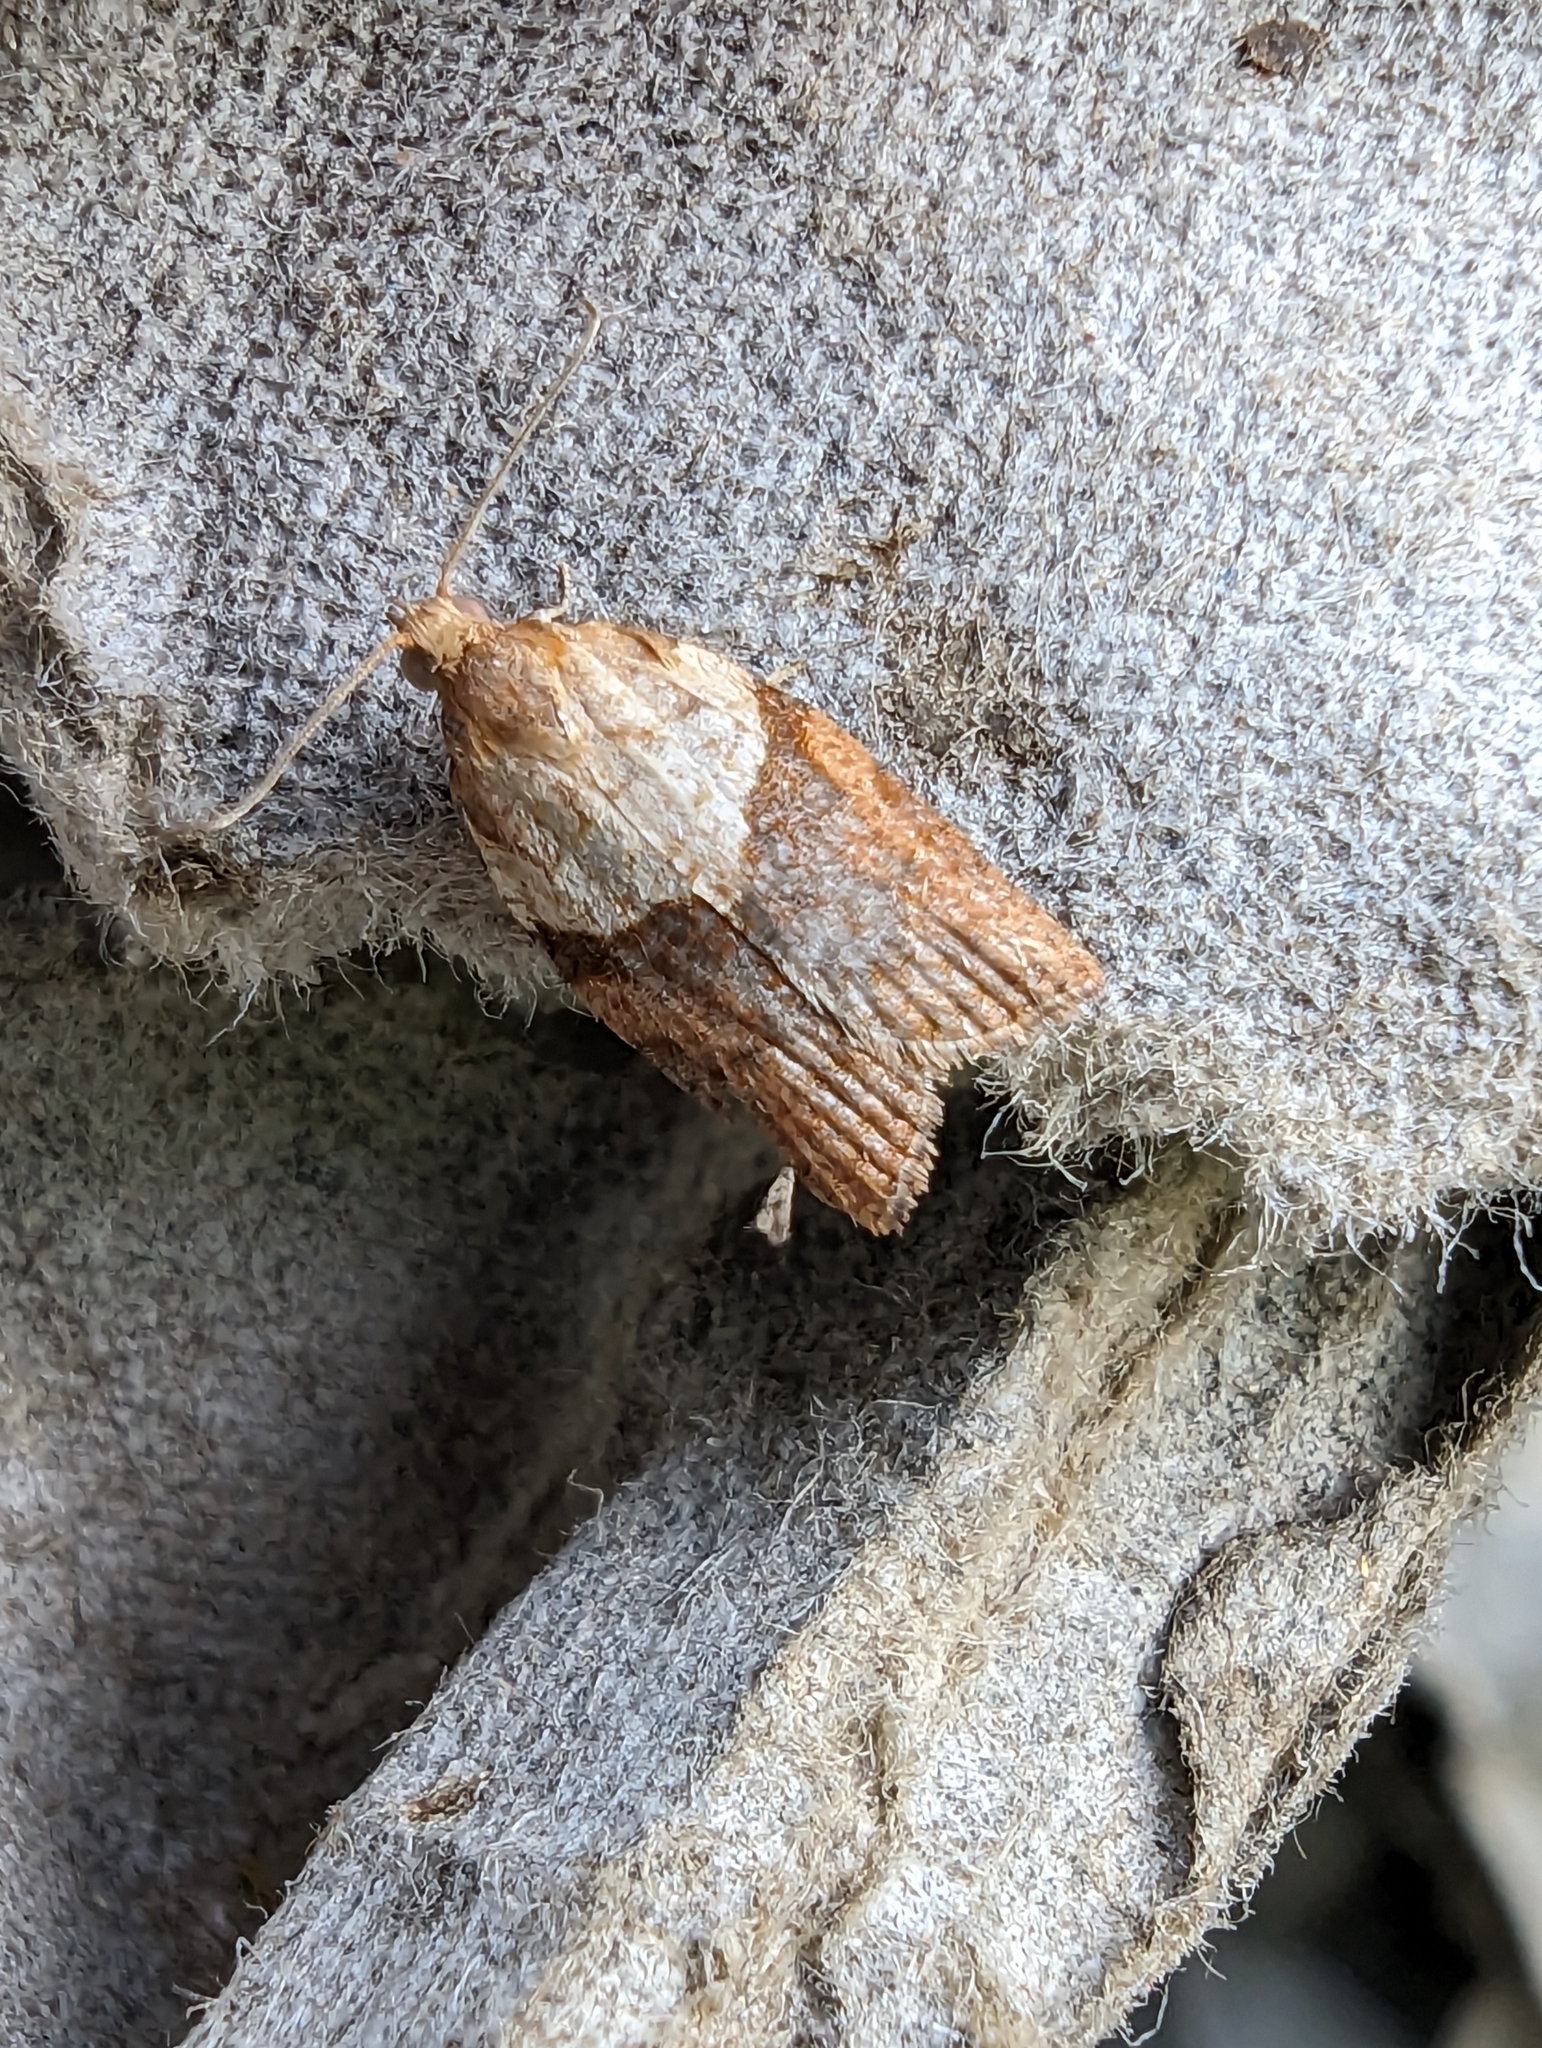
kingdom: Animalia
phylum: Arthropoda
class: Insecta
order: Lepidoptera
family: Tortricidae
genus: Epiphyas
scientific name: Epiphyas postvittana
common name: Light brown apple moth
